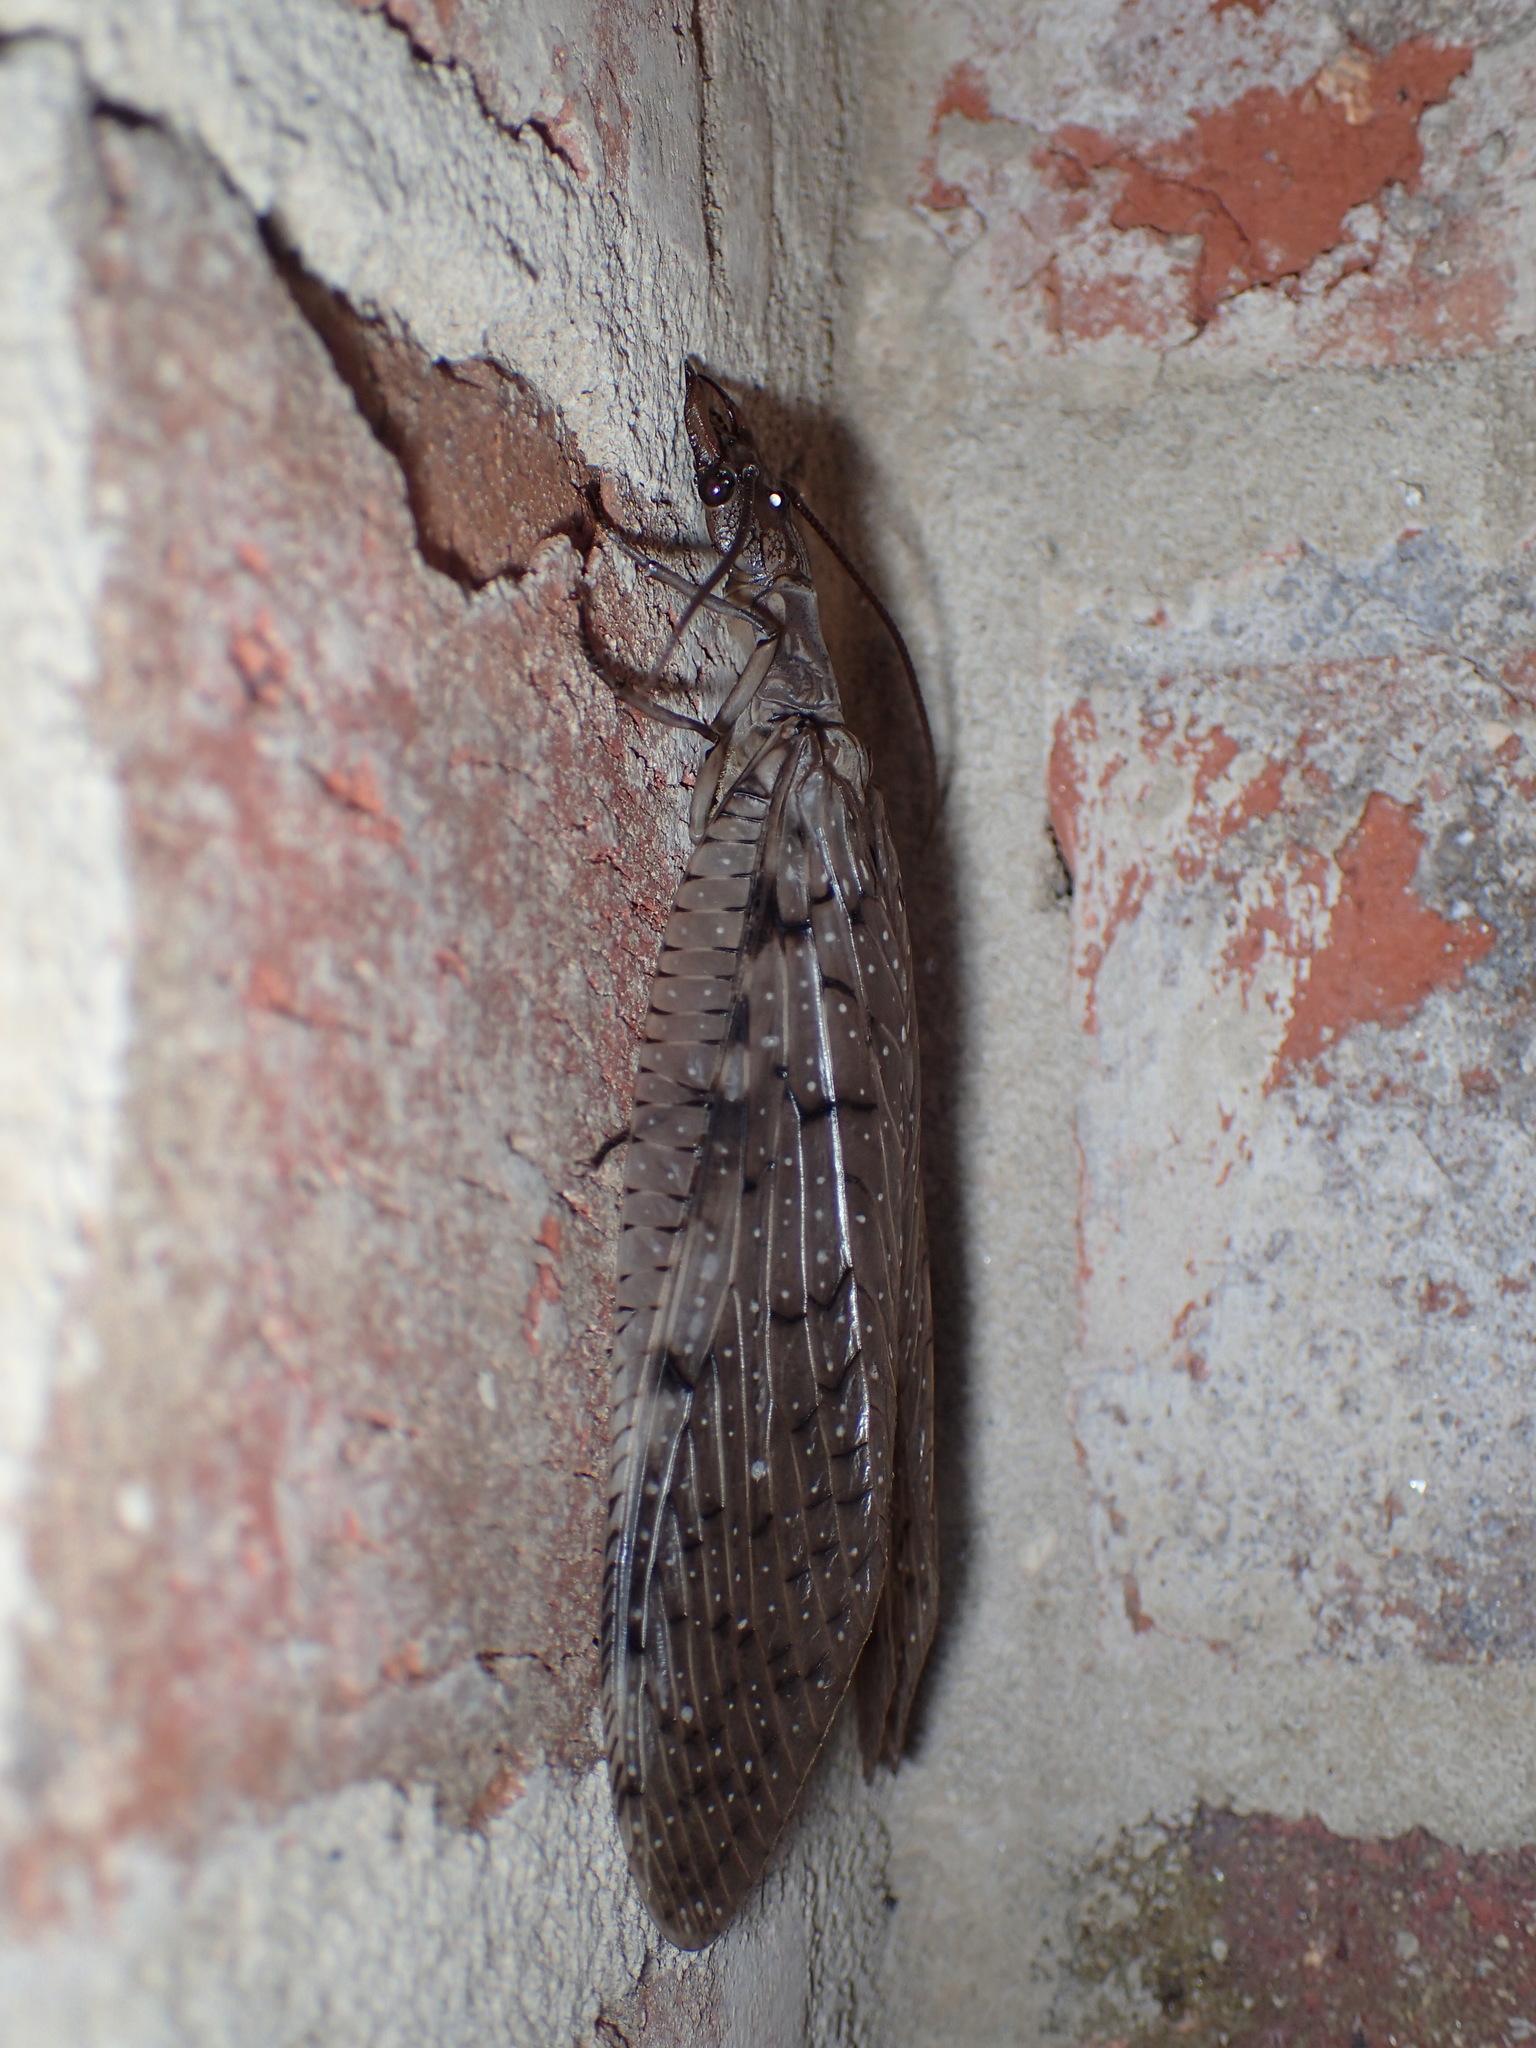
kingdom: Animalia
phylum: Arthropoda
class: Insecta
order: Megaloptera
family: Corydalidae
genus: Corydalus
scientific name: Corydalus cornutus
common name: Dobsonfly
